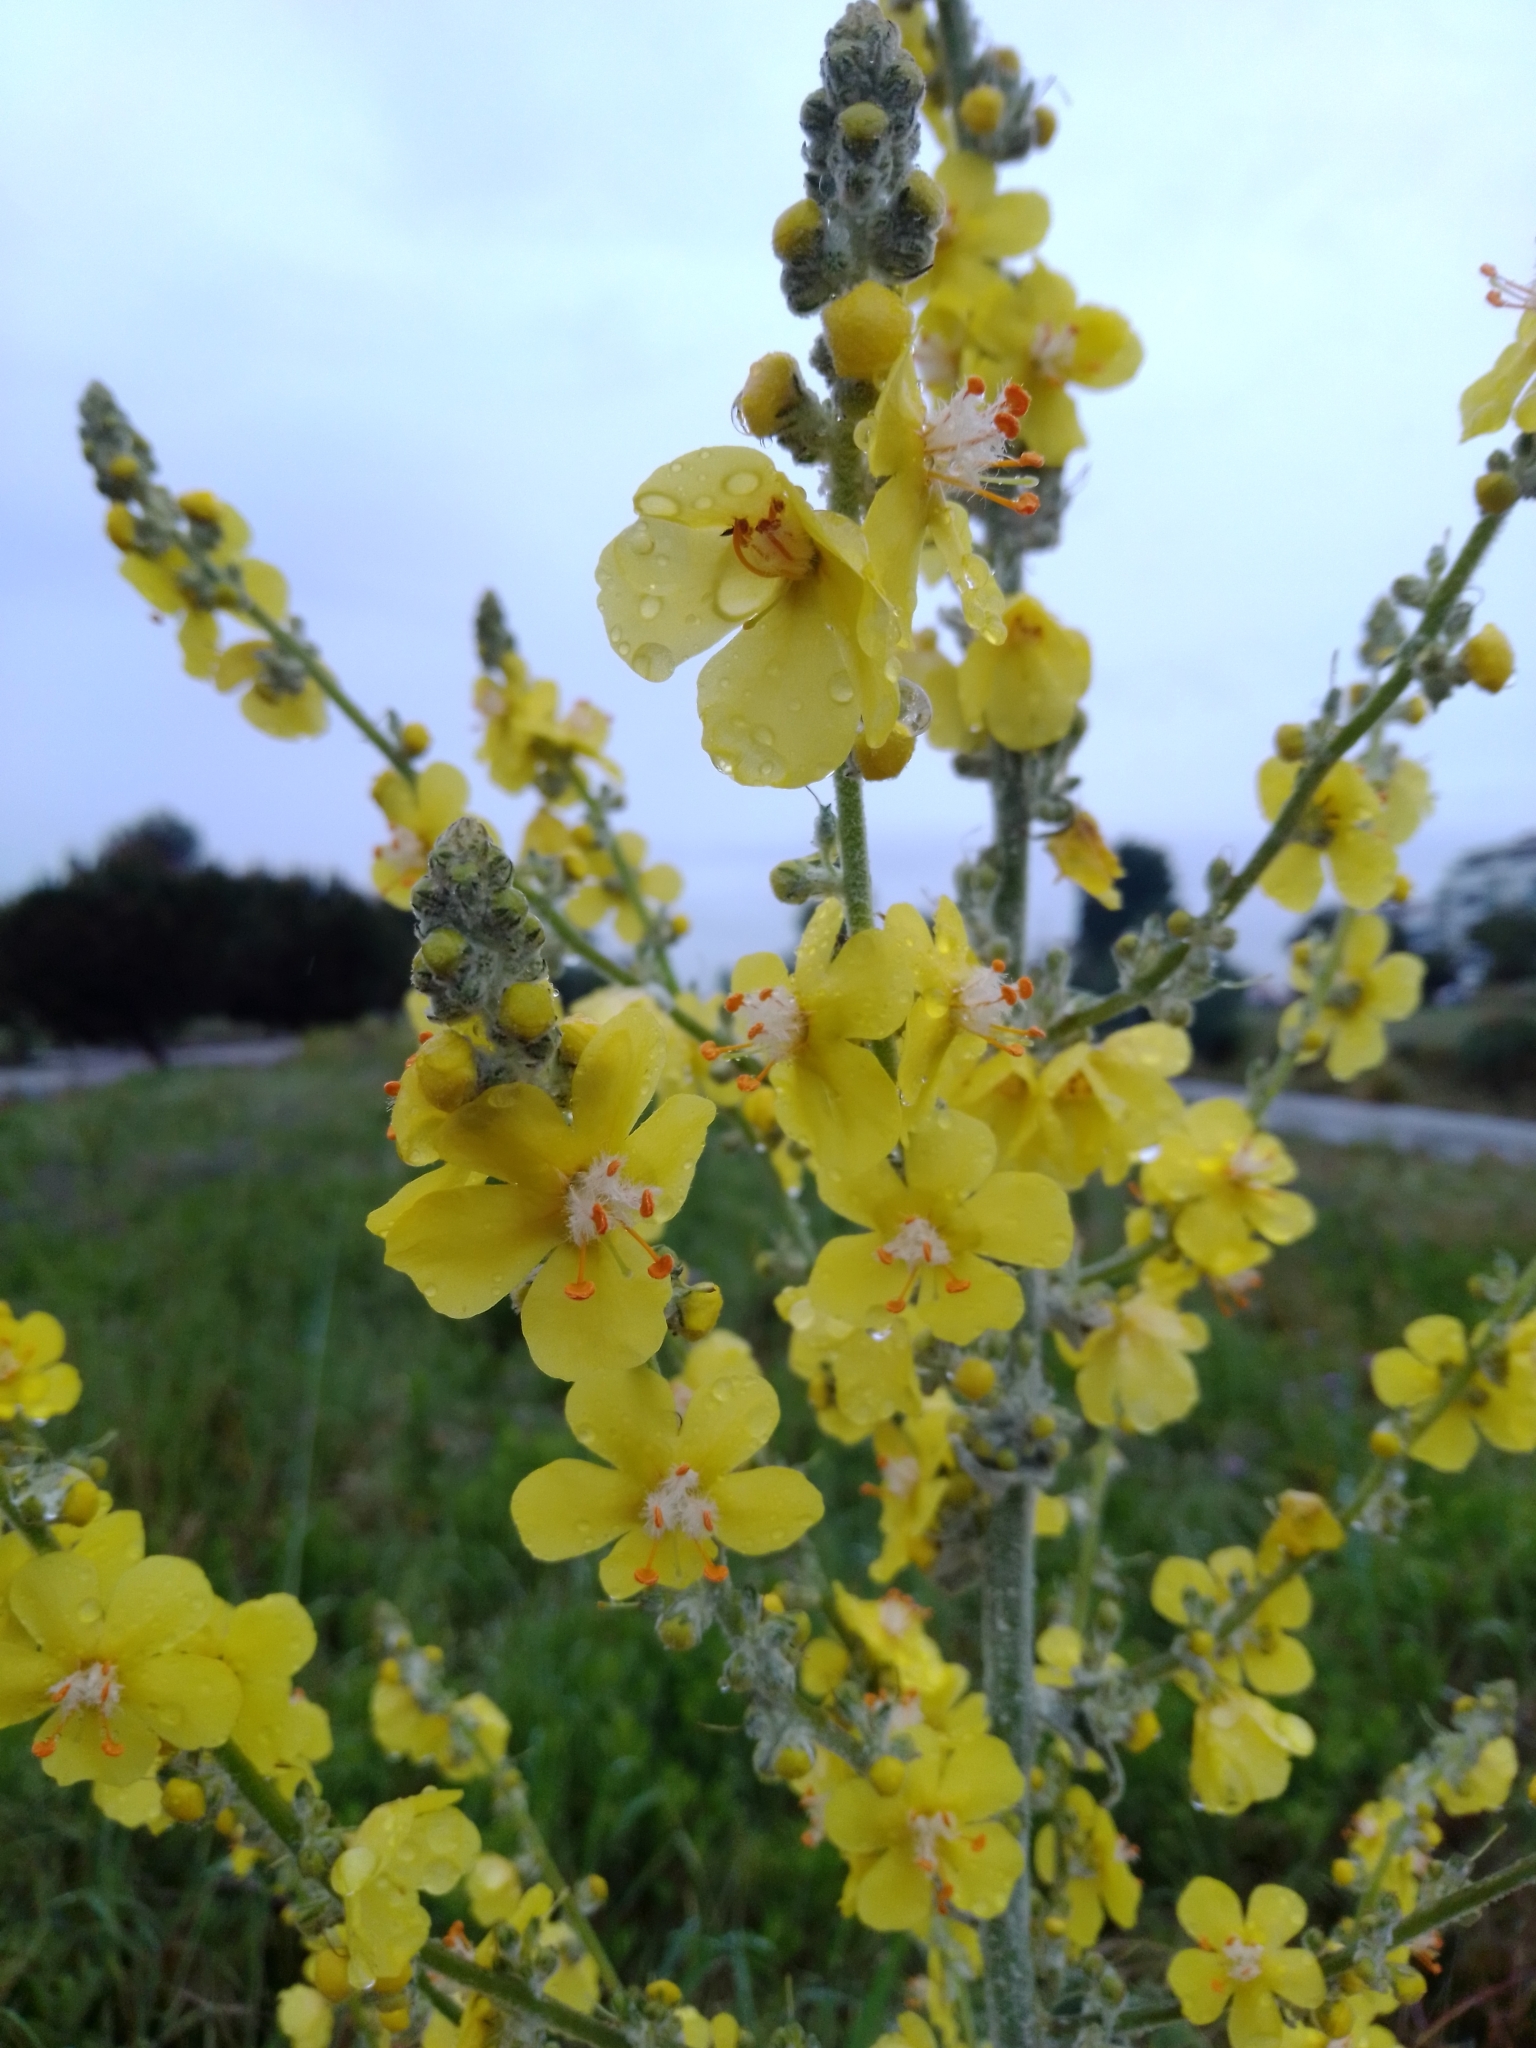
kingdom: Plantae
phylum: Tracheophyta
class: Magnoliopsida
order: Lamiales
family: Scrophulariaceae
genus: Verbascum
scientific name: Verbascum pulverulentum
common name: Broad-leaf mullein
